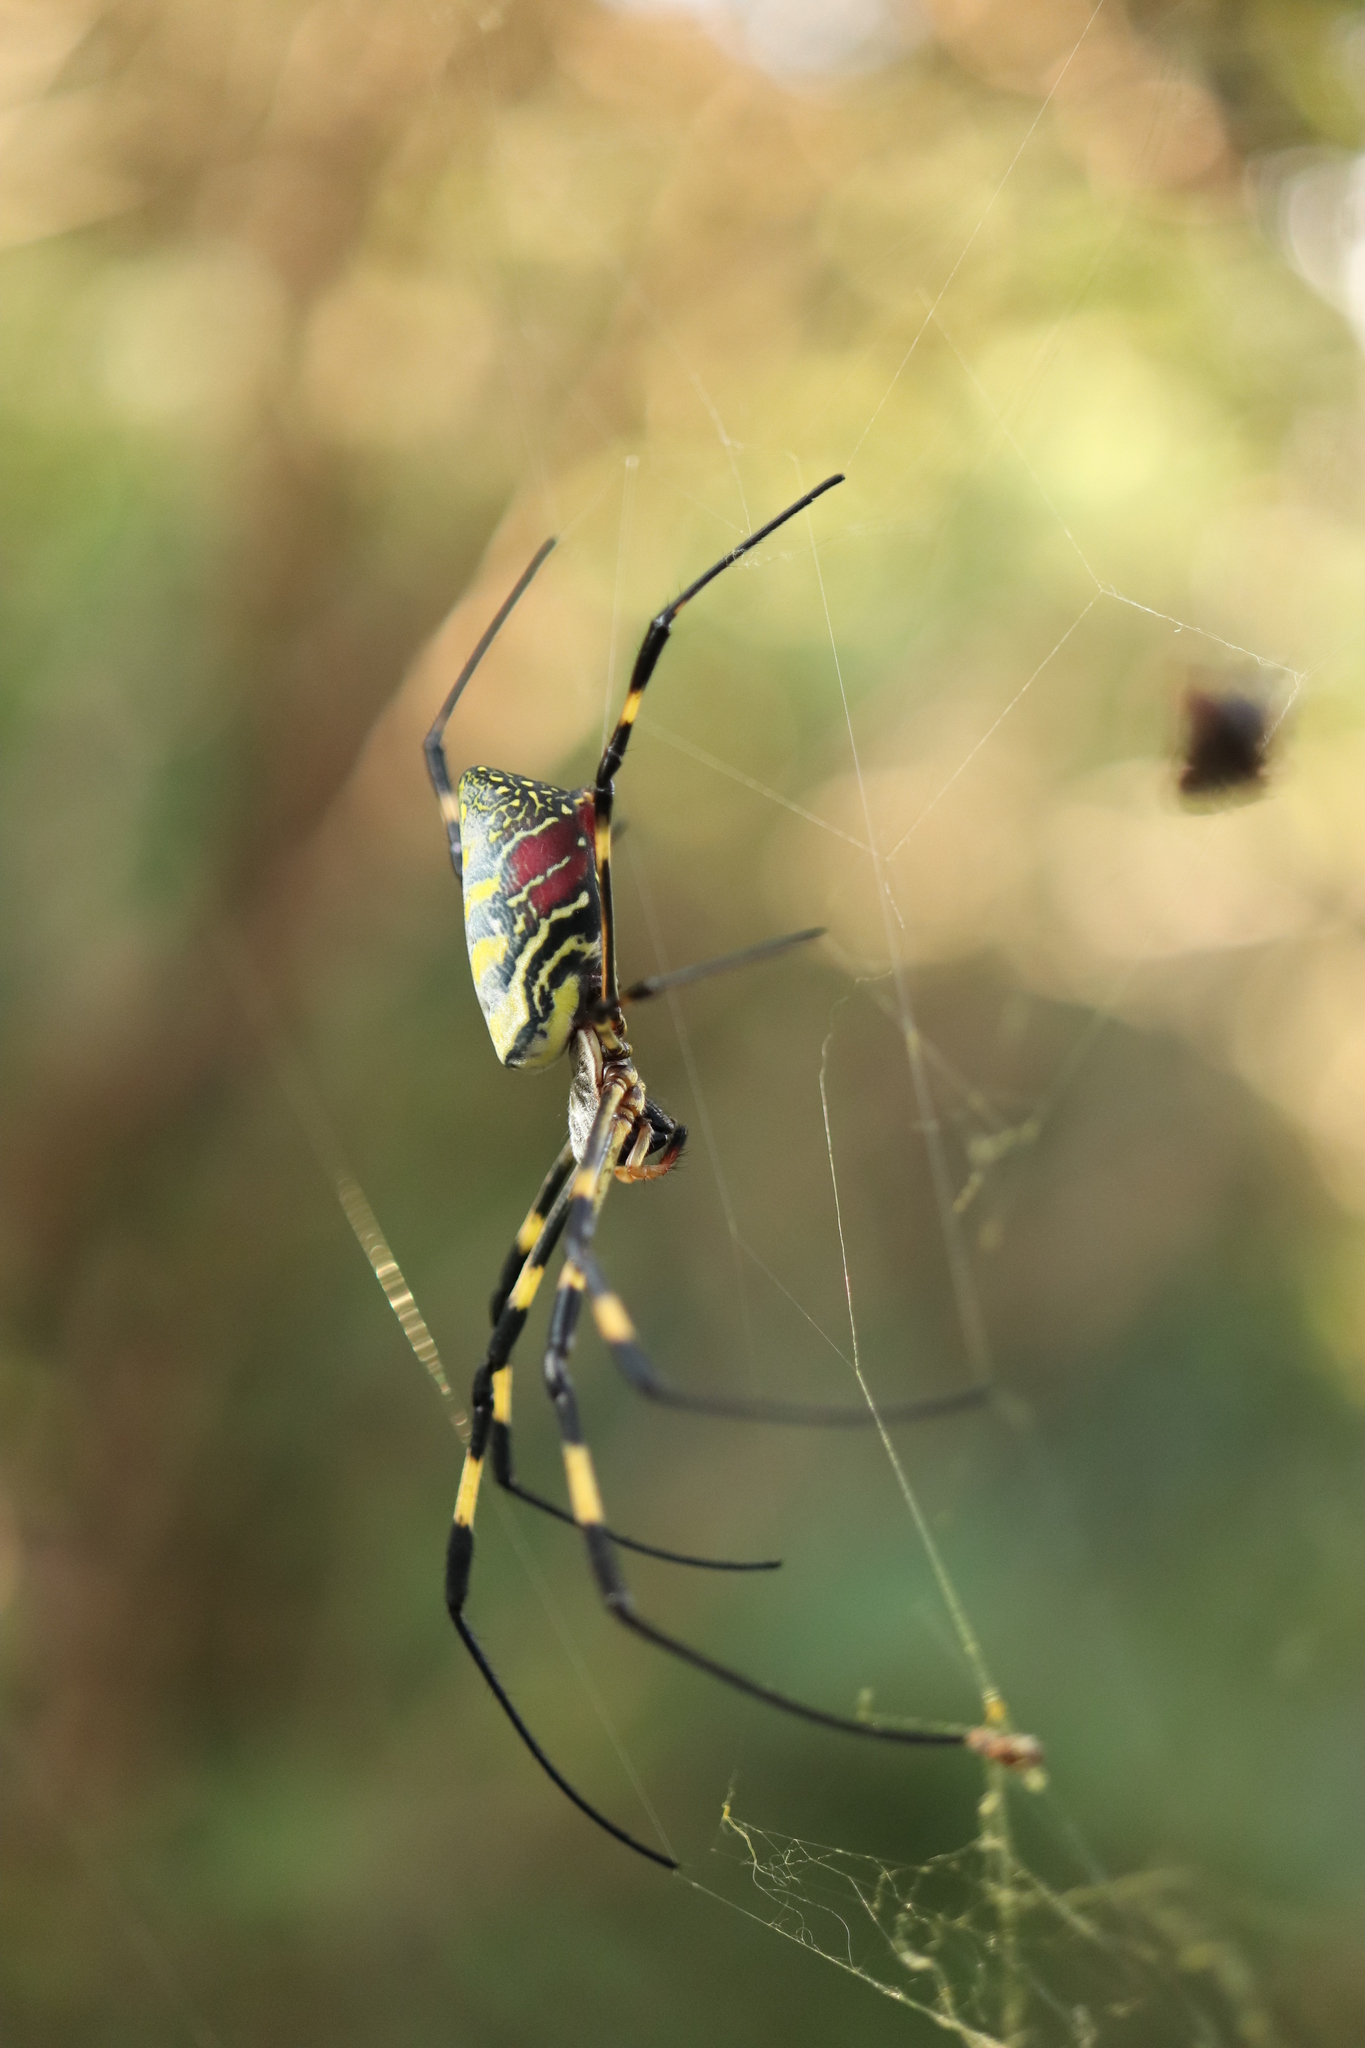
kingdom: Animalia
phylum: Arthropoda
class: Arachnida
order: Araneae
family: Araneidae
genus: Trichonephila
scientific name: Trichonephila clavata
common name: Jorō spider
